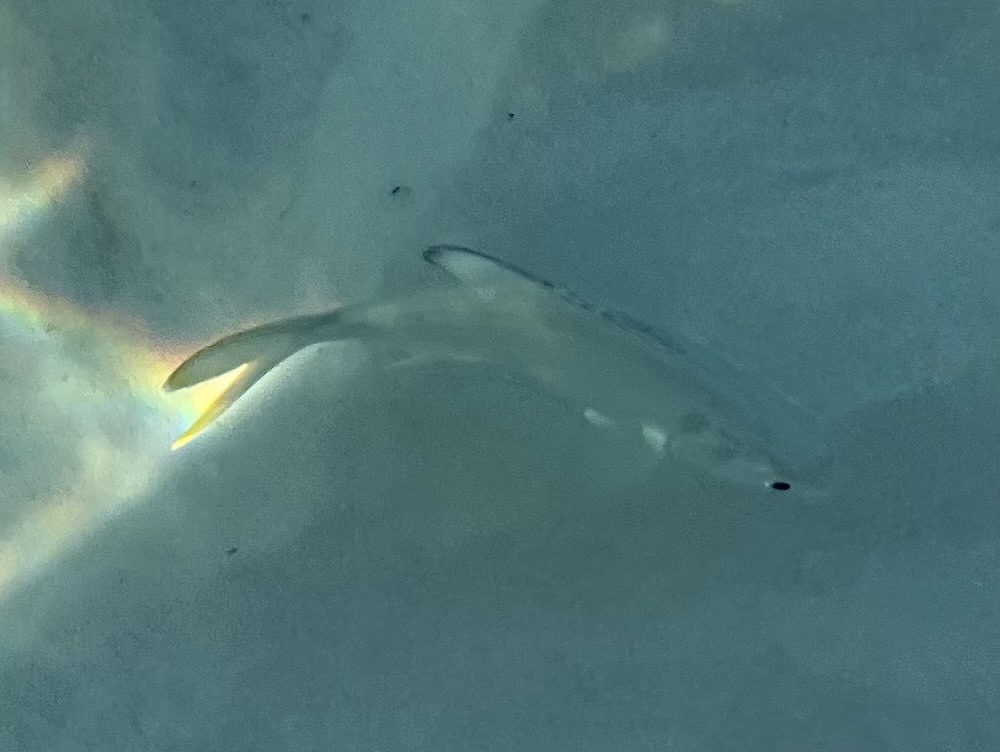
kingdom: Animalia
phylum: Chordata
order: Perciformes
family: Carangidae
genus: Trachinotus
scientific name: Trachinotus carolinus
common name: Florida pompano
